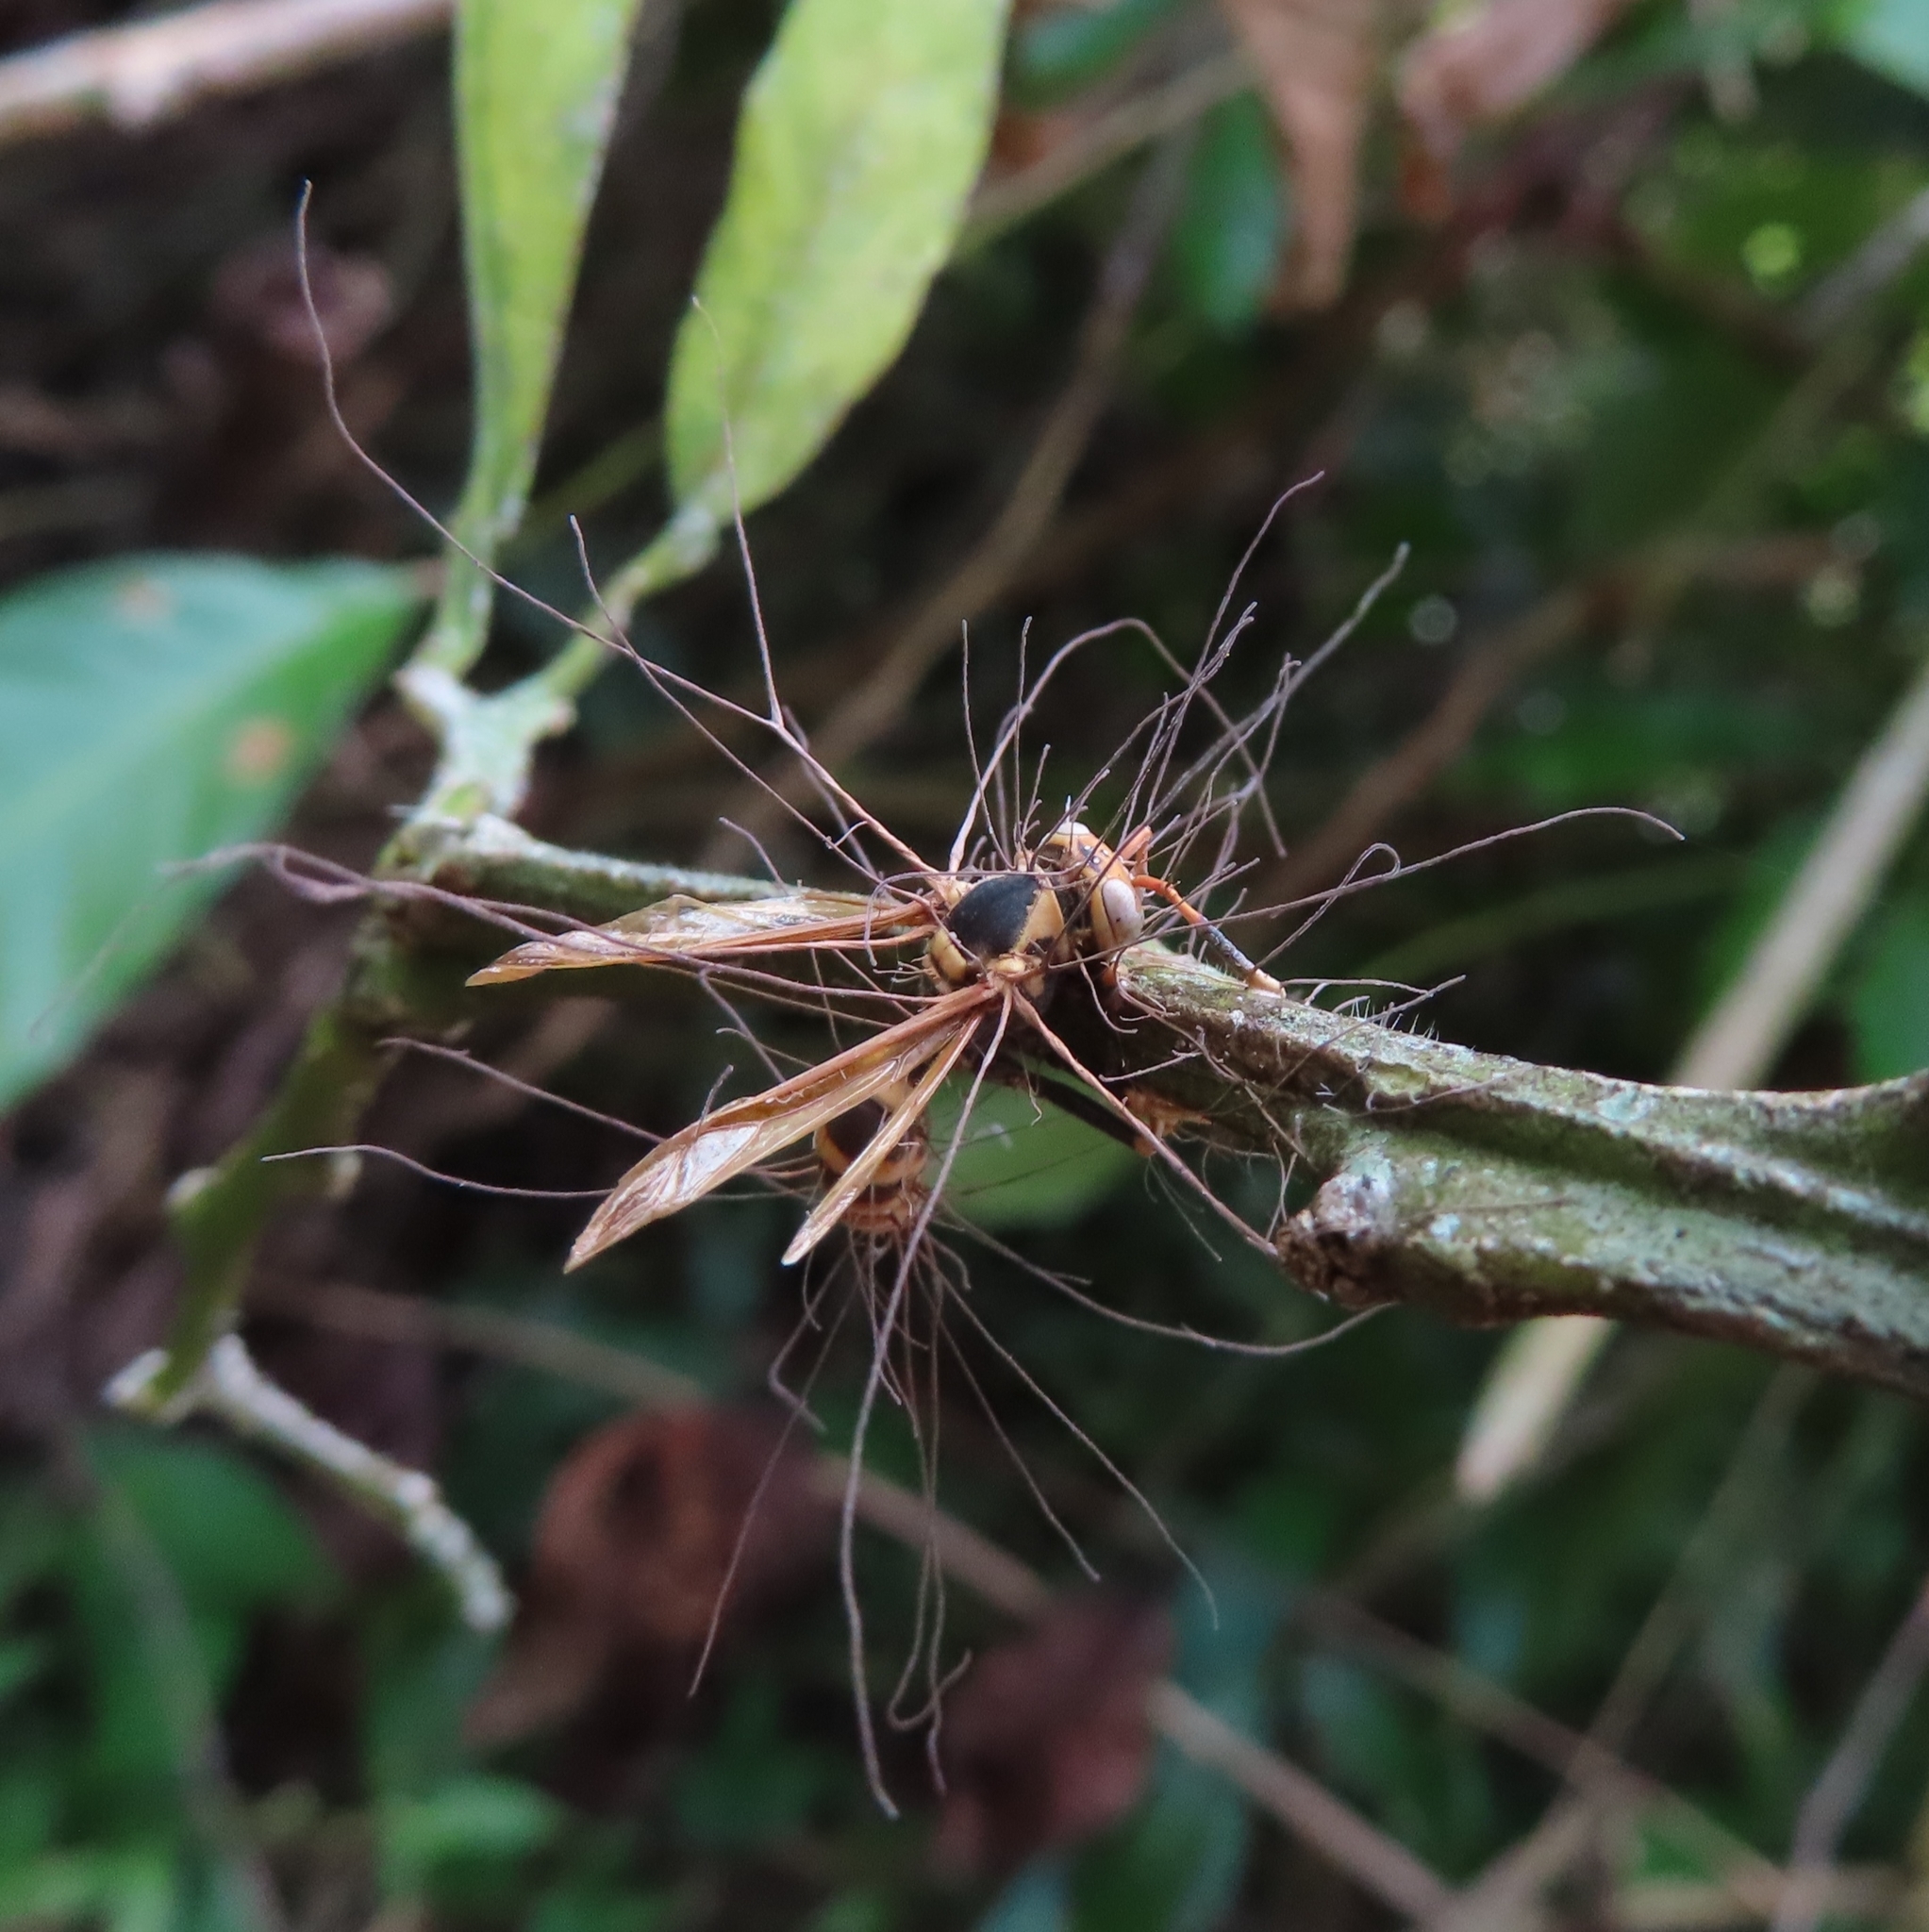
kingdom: Fungi
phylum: Ascomycota
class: Sordariomycetes
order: Hypocreales
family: Ophiocordycipitaceae
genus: Ophiocordyceps
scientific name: Ophiocordyceps humbertii
